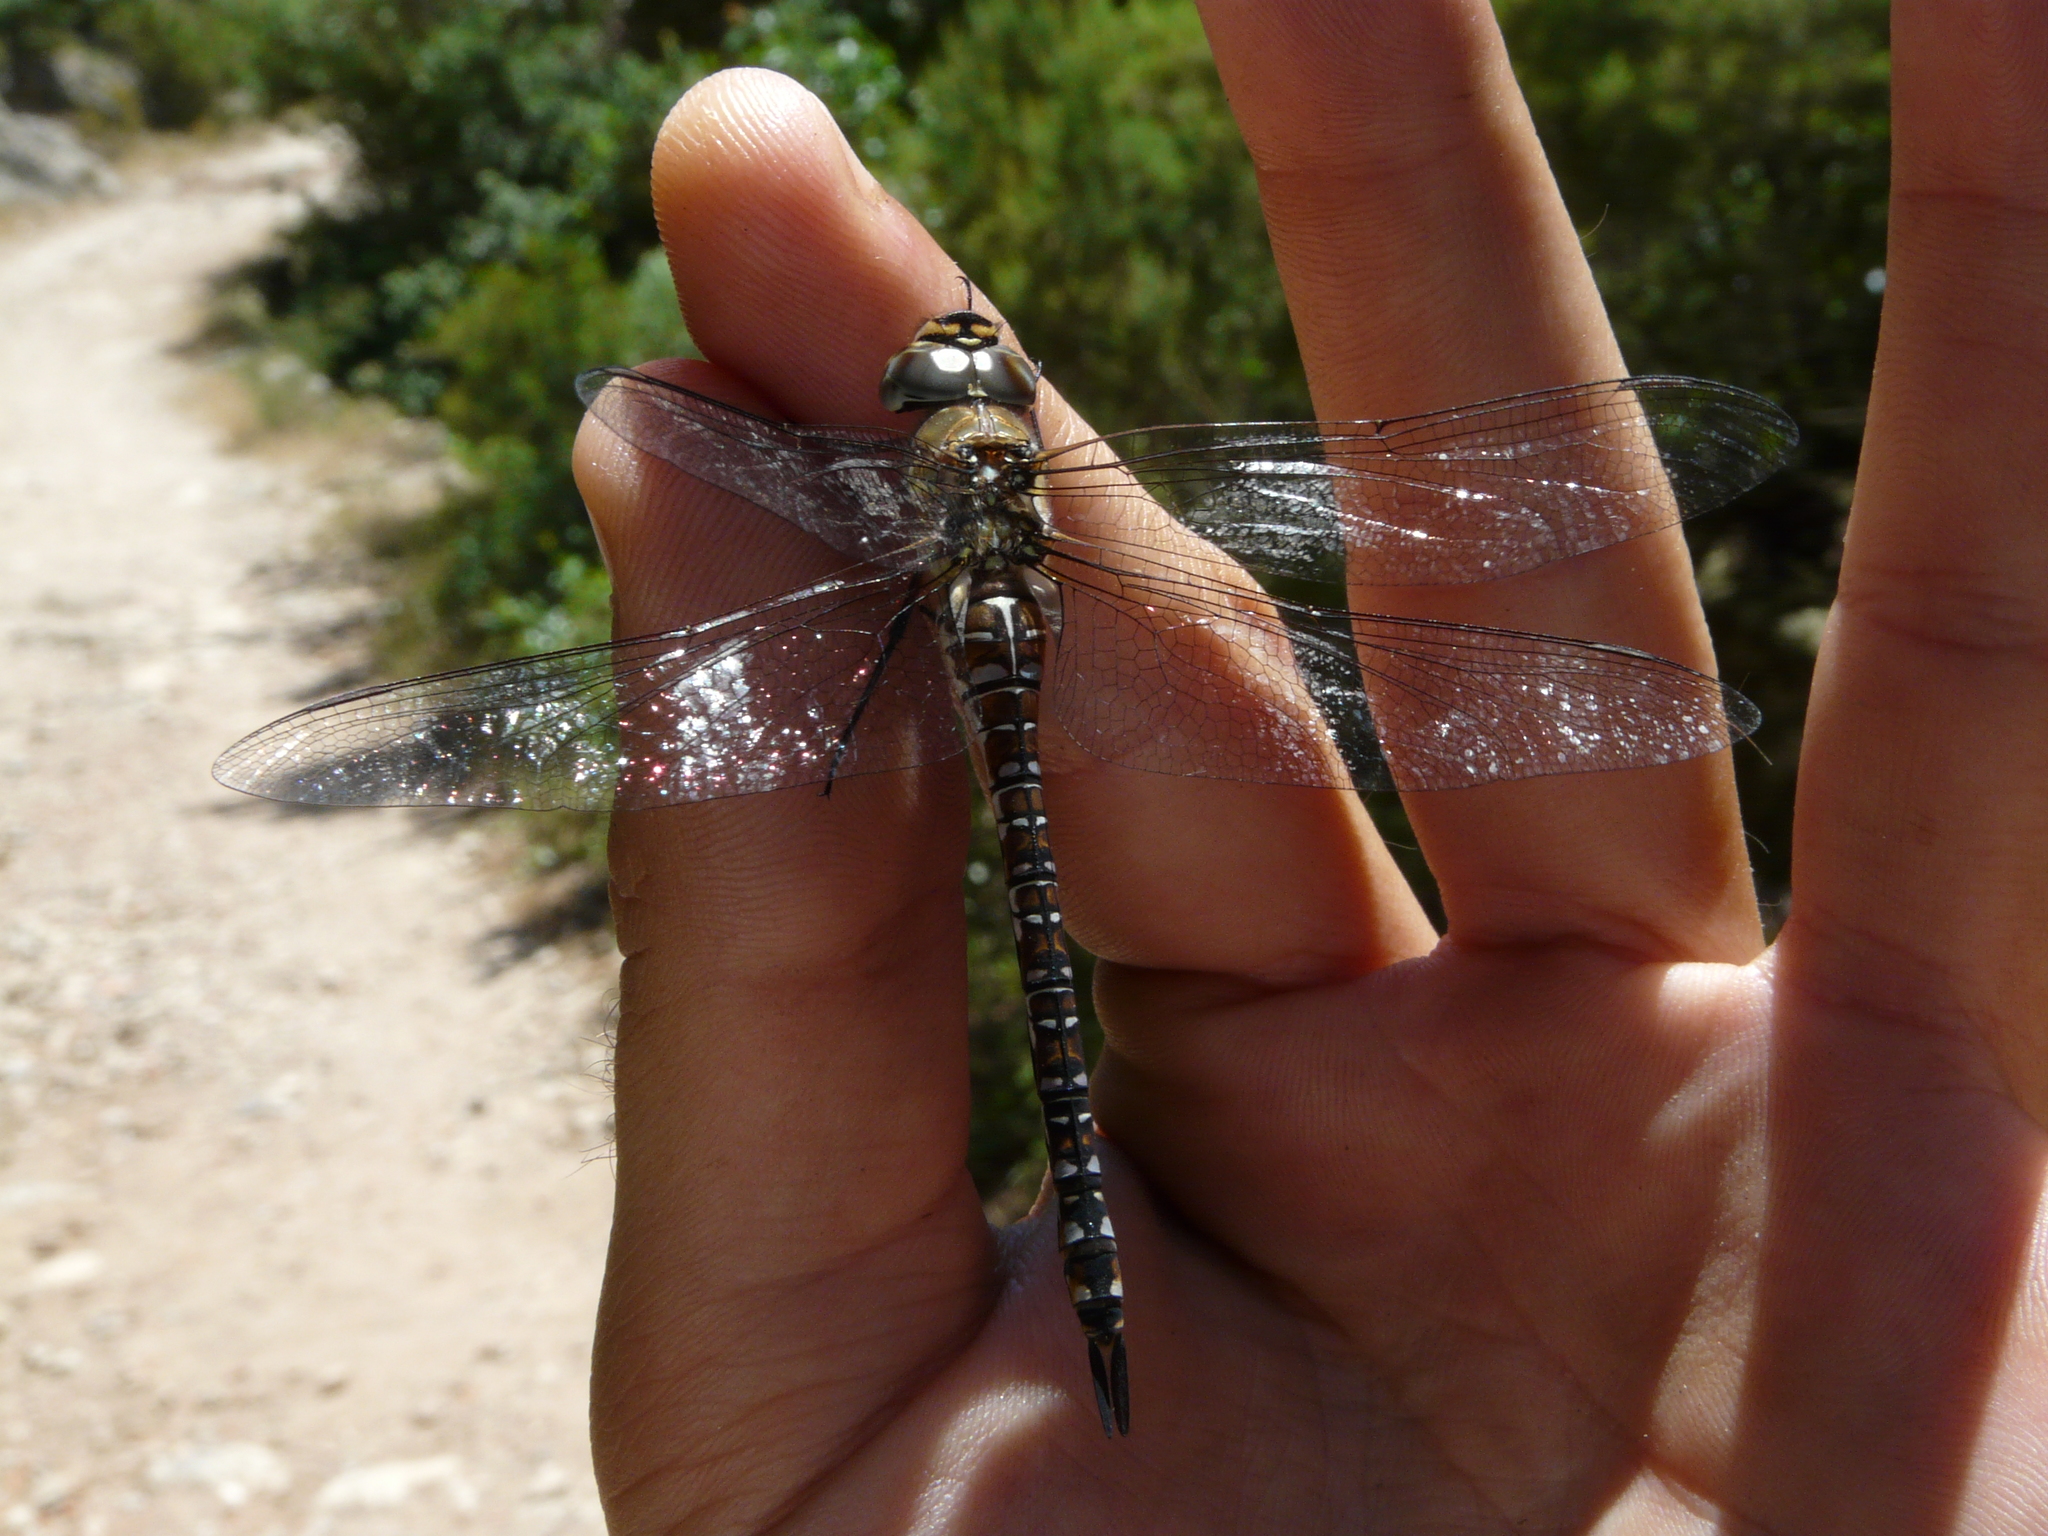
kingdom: Animalia
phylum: Arthropoda
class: Insecta
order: Odonata
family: Aeshnidae
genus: Aeshna
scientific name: Aeshna mixta
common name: Migrant hawker
